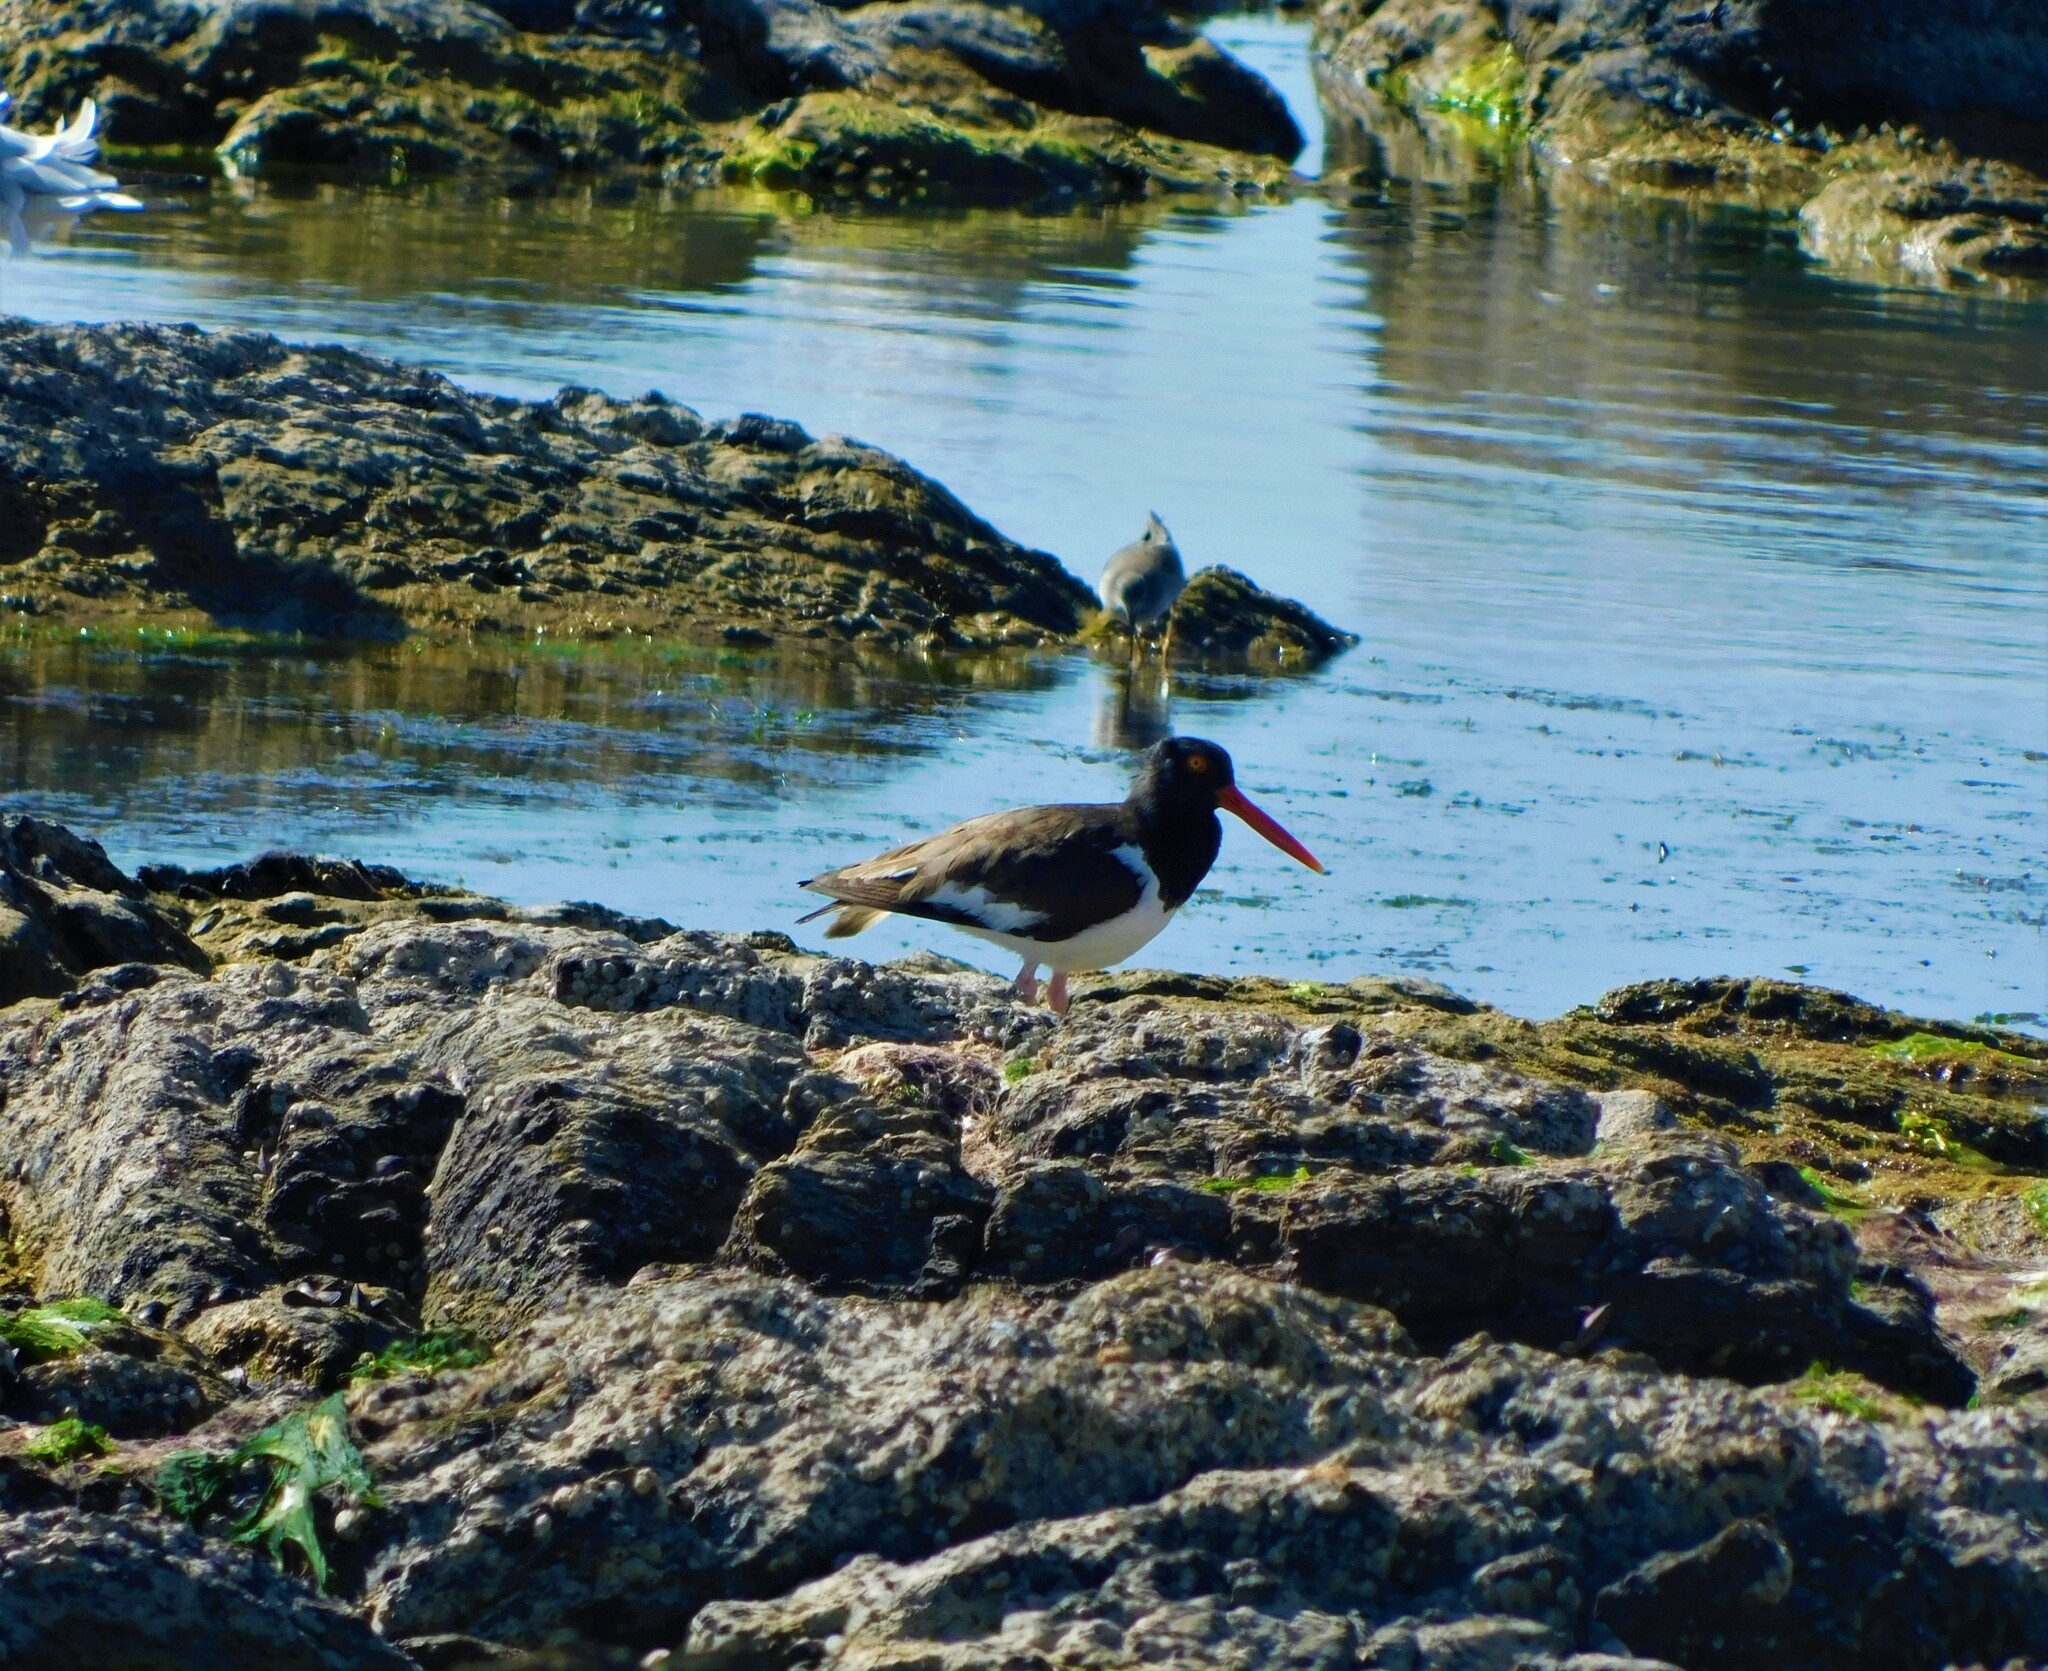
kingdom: Animalia
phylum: Chordata
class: Aves
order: Charadriiformes
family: Haematopodidae
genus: Haematopus
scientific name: Haematopus palliatus
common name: American oystercatcher
